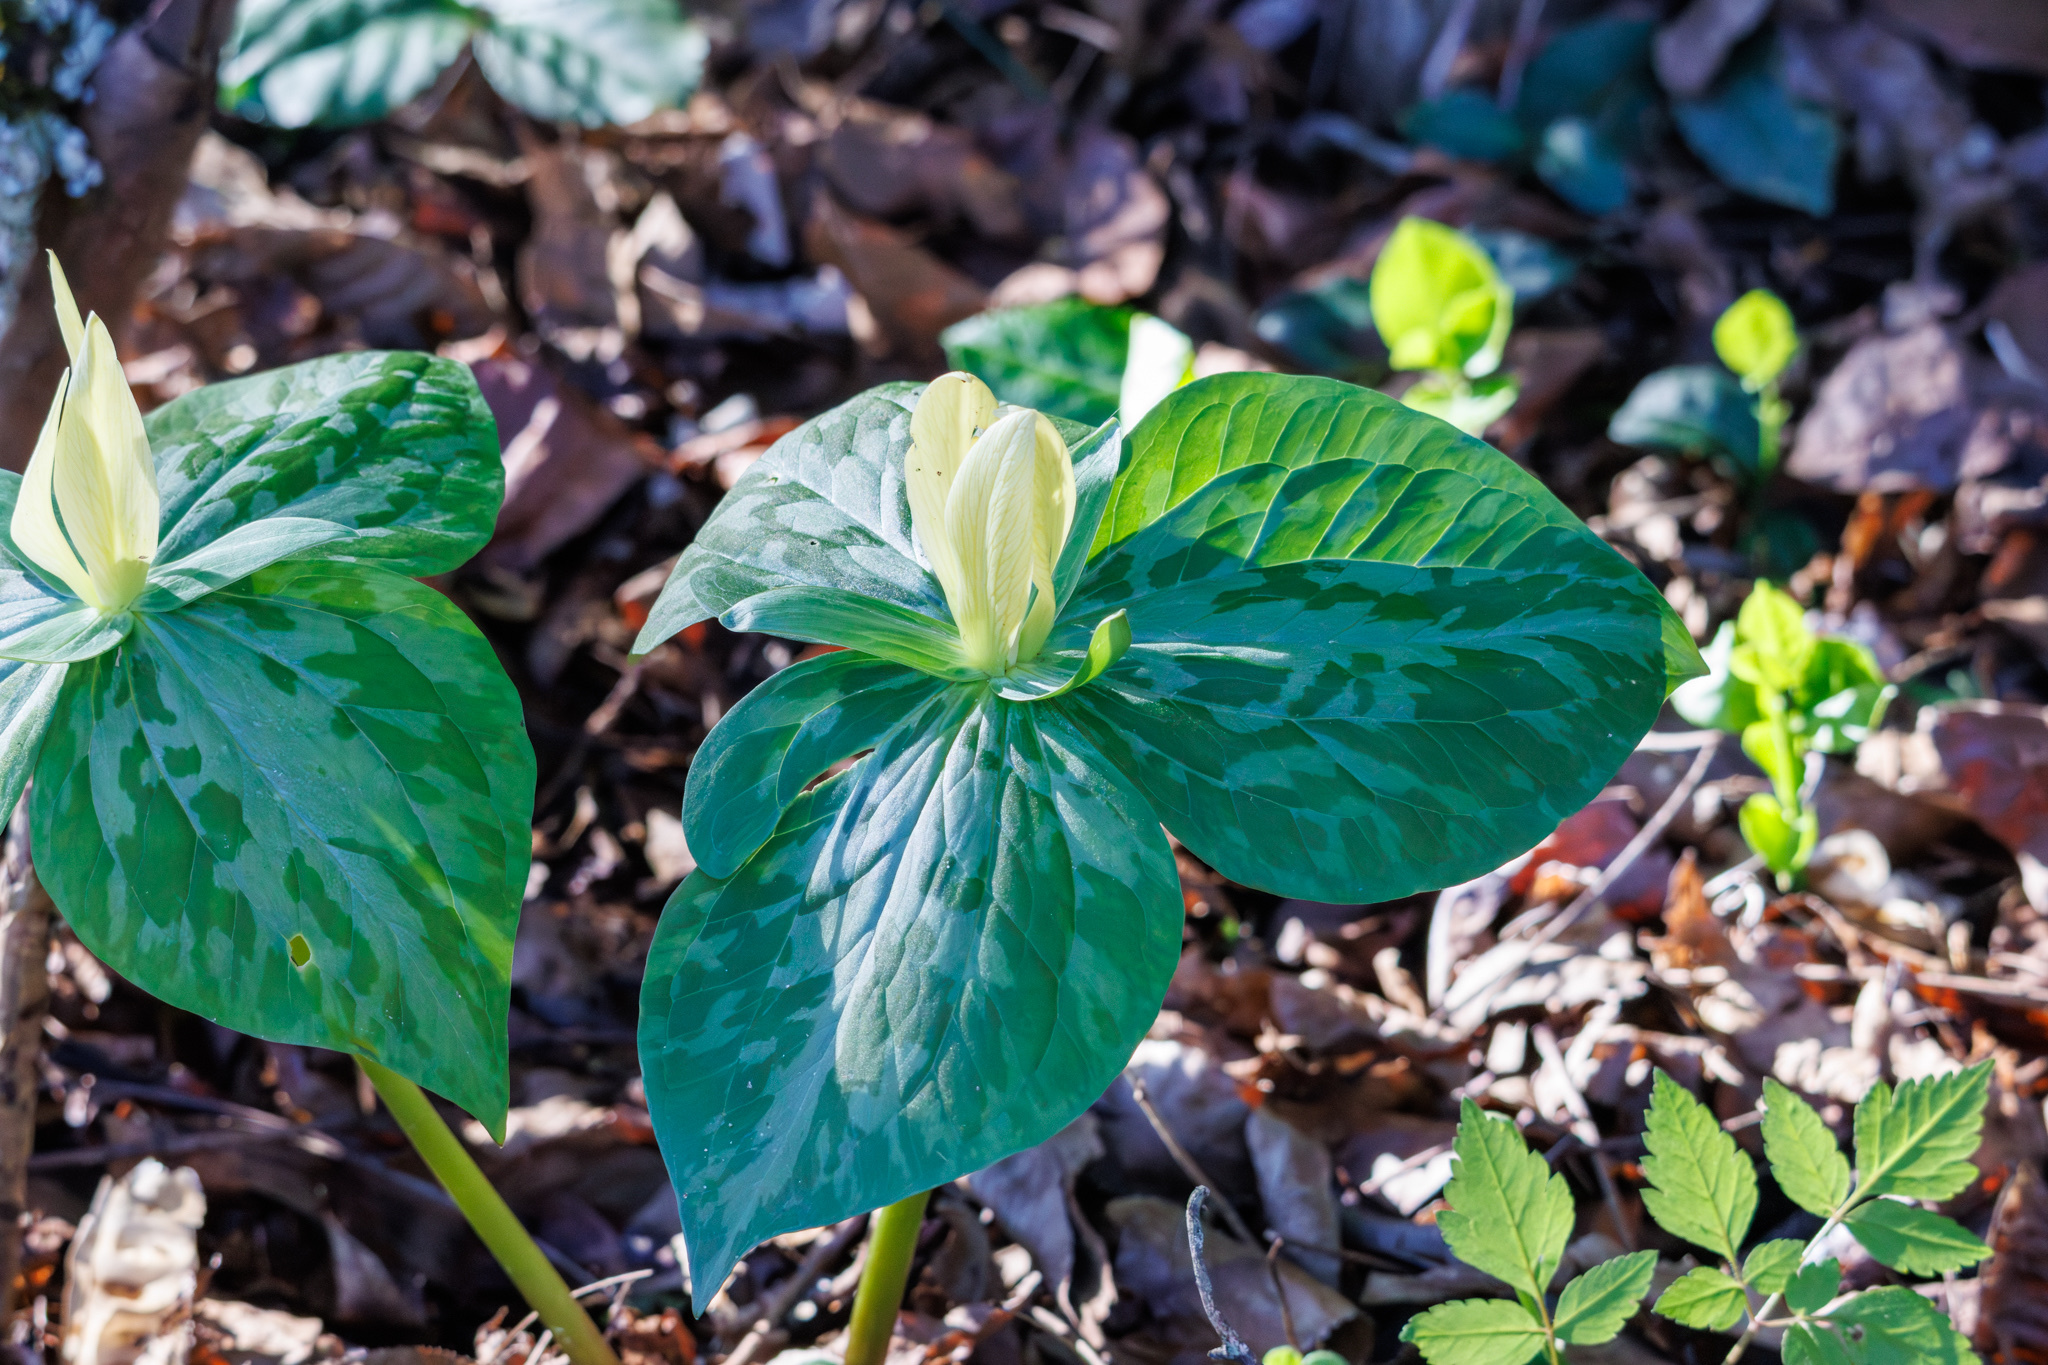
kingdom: Plantae
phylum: Tracheophyta
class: Liliopsida
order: Liliales
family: Melanthiaceae
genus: Trillium
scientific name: Trillium luteum
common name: Wax trillium
